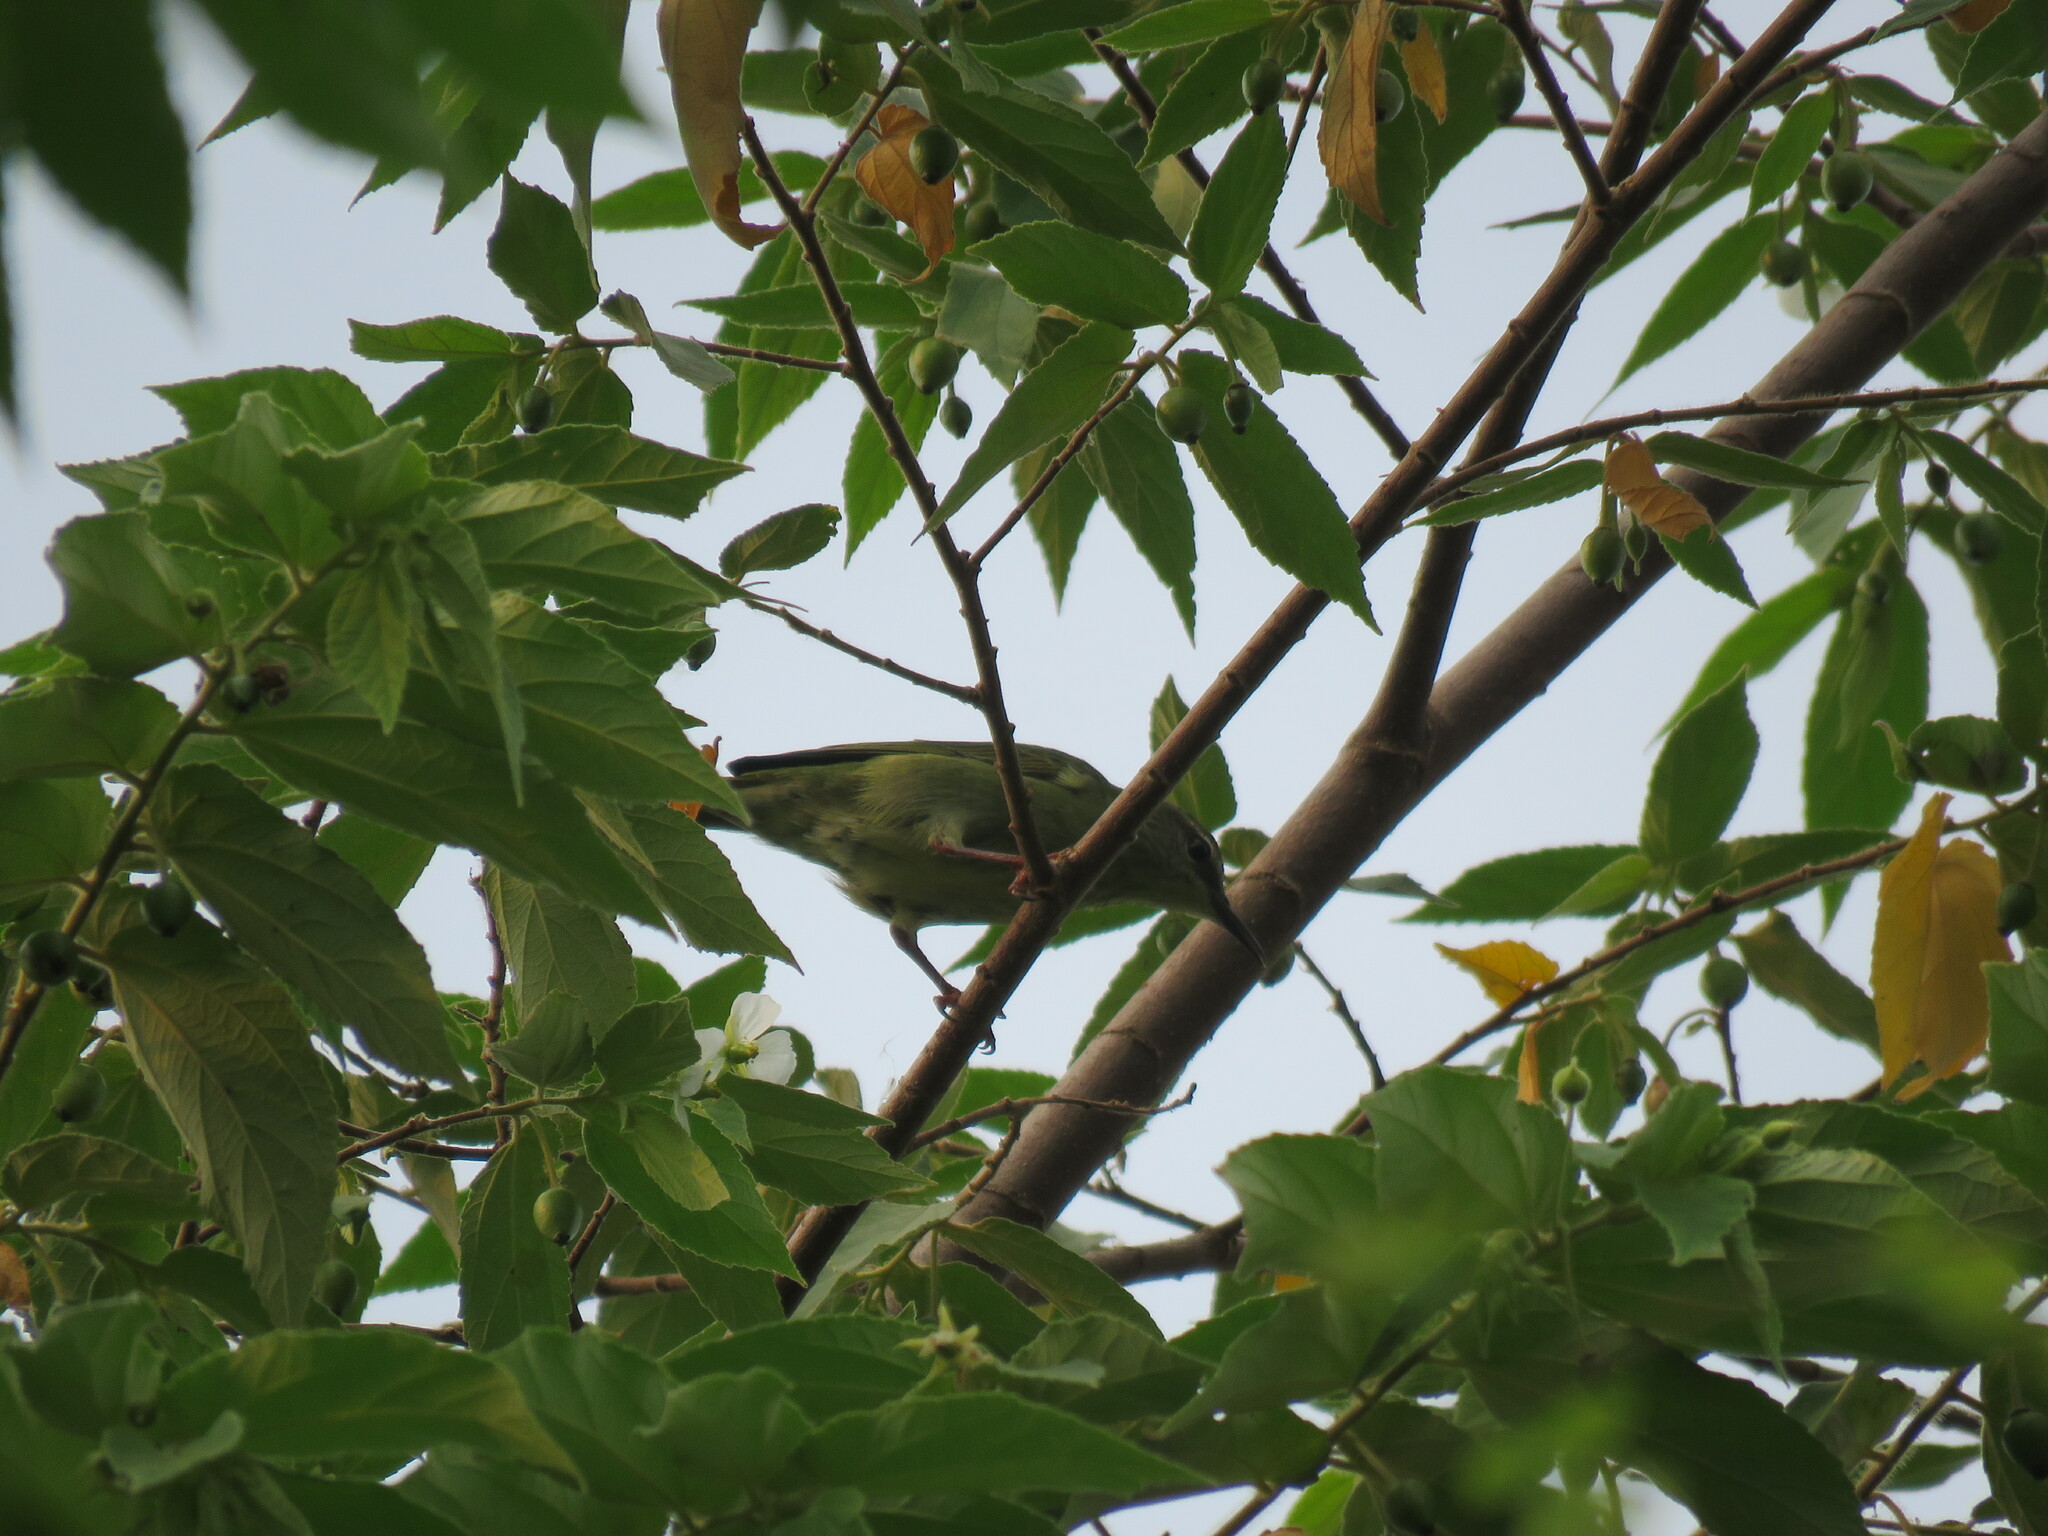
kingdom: Animalia
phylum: Chordata
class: Aves
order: Passeriformes
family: Thraupidae
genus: Cyanerpes
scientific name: Cyanerpes cyaneus
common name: Red-legged honeycreeper
